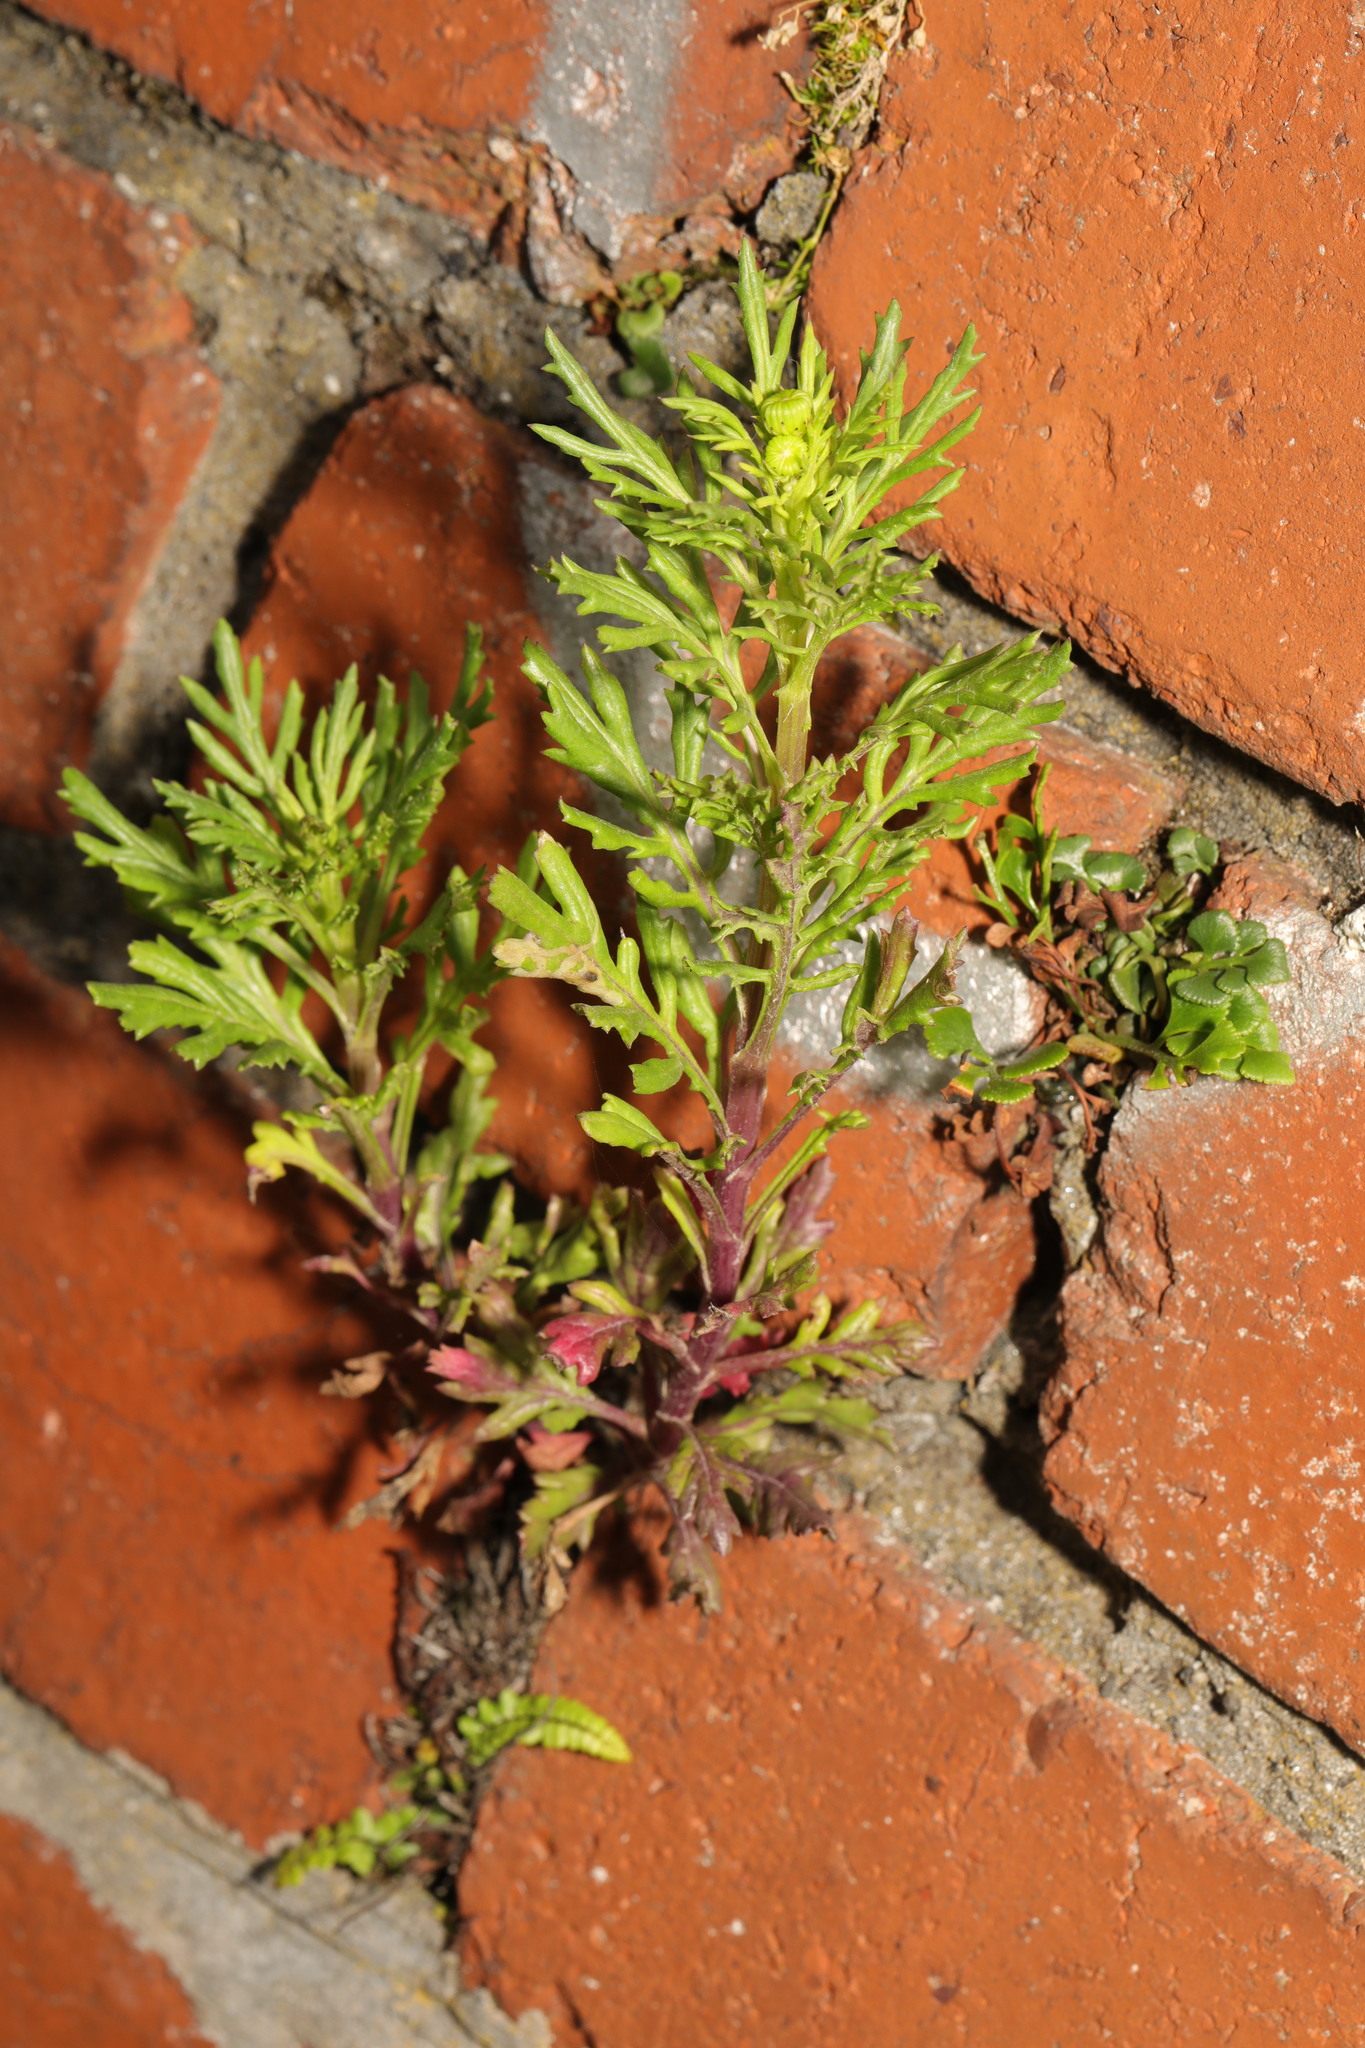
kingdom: Plantae
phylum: Tracheophyta
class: Magnoliopsida
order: Asterales
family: Asteraceae
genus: Senecio
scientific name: Senecio squalidus
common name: Oxford ragwort
